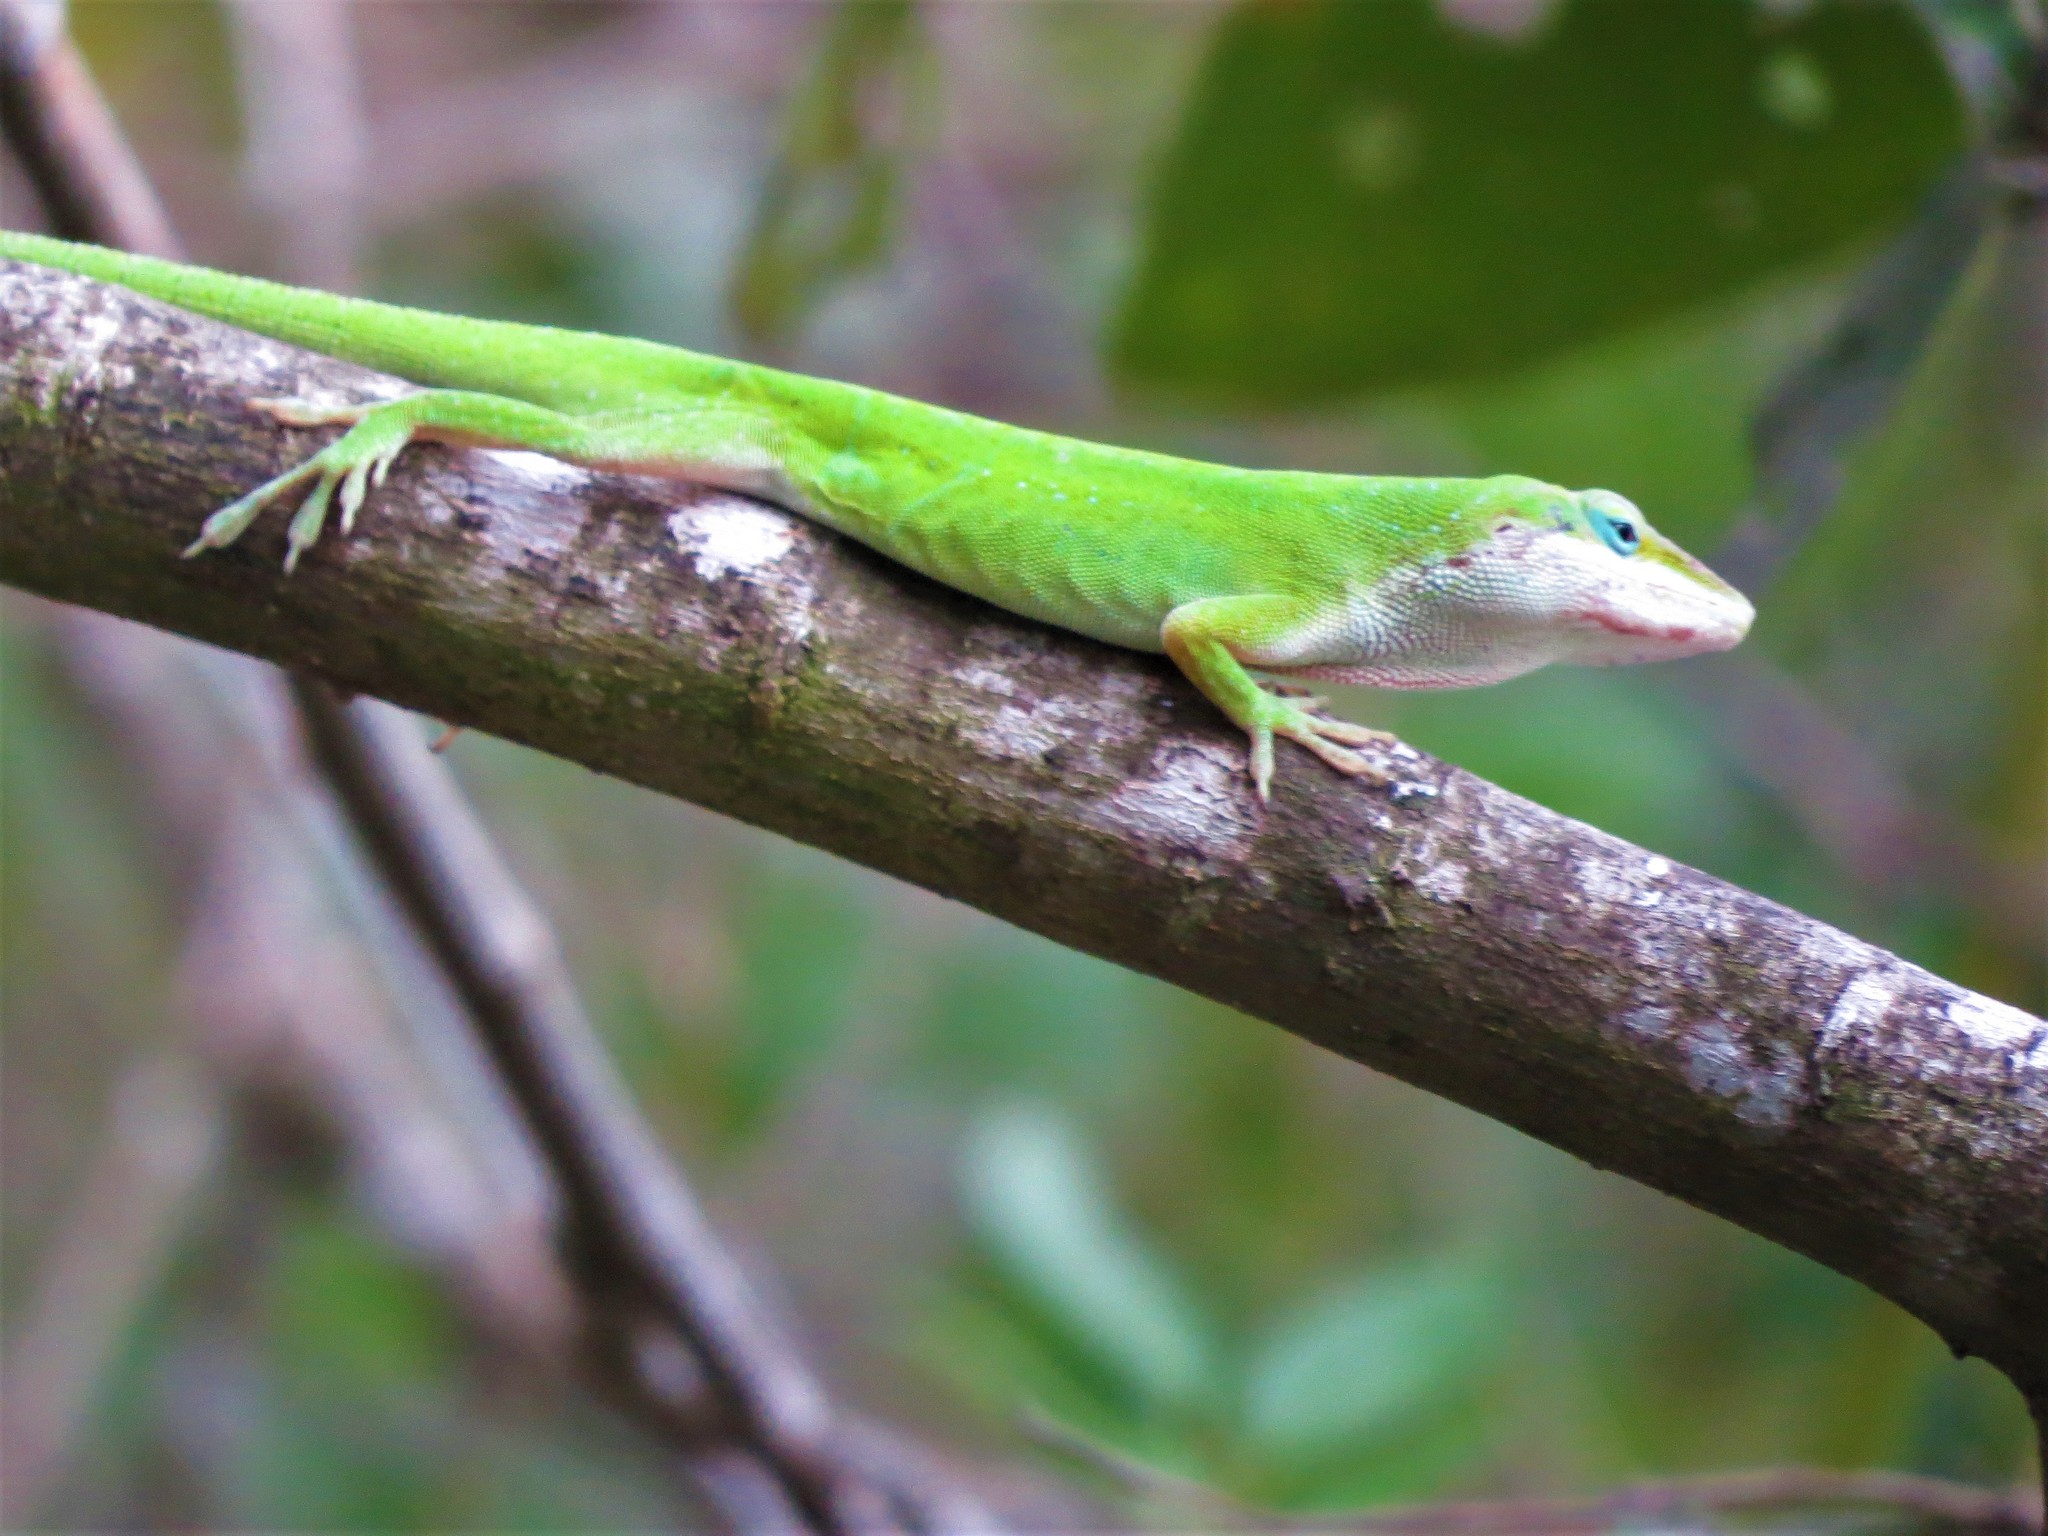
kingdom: Animalia
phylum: Chordata
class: Squamata
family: Dactyloidae
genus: Anolis
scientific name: Anolis carolinensis
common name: Green anole
